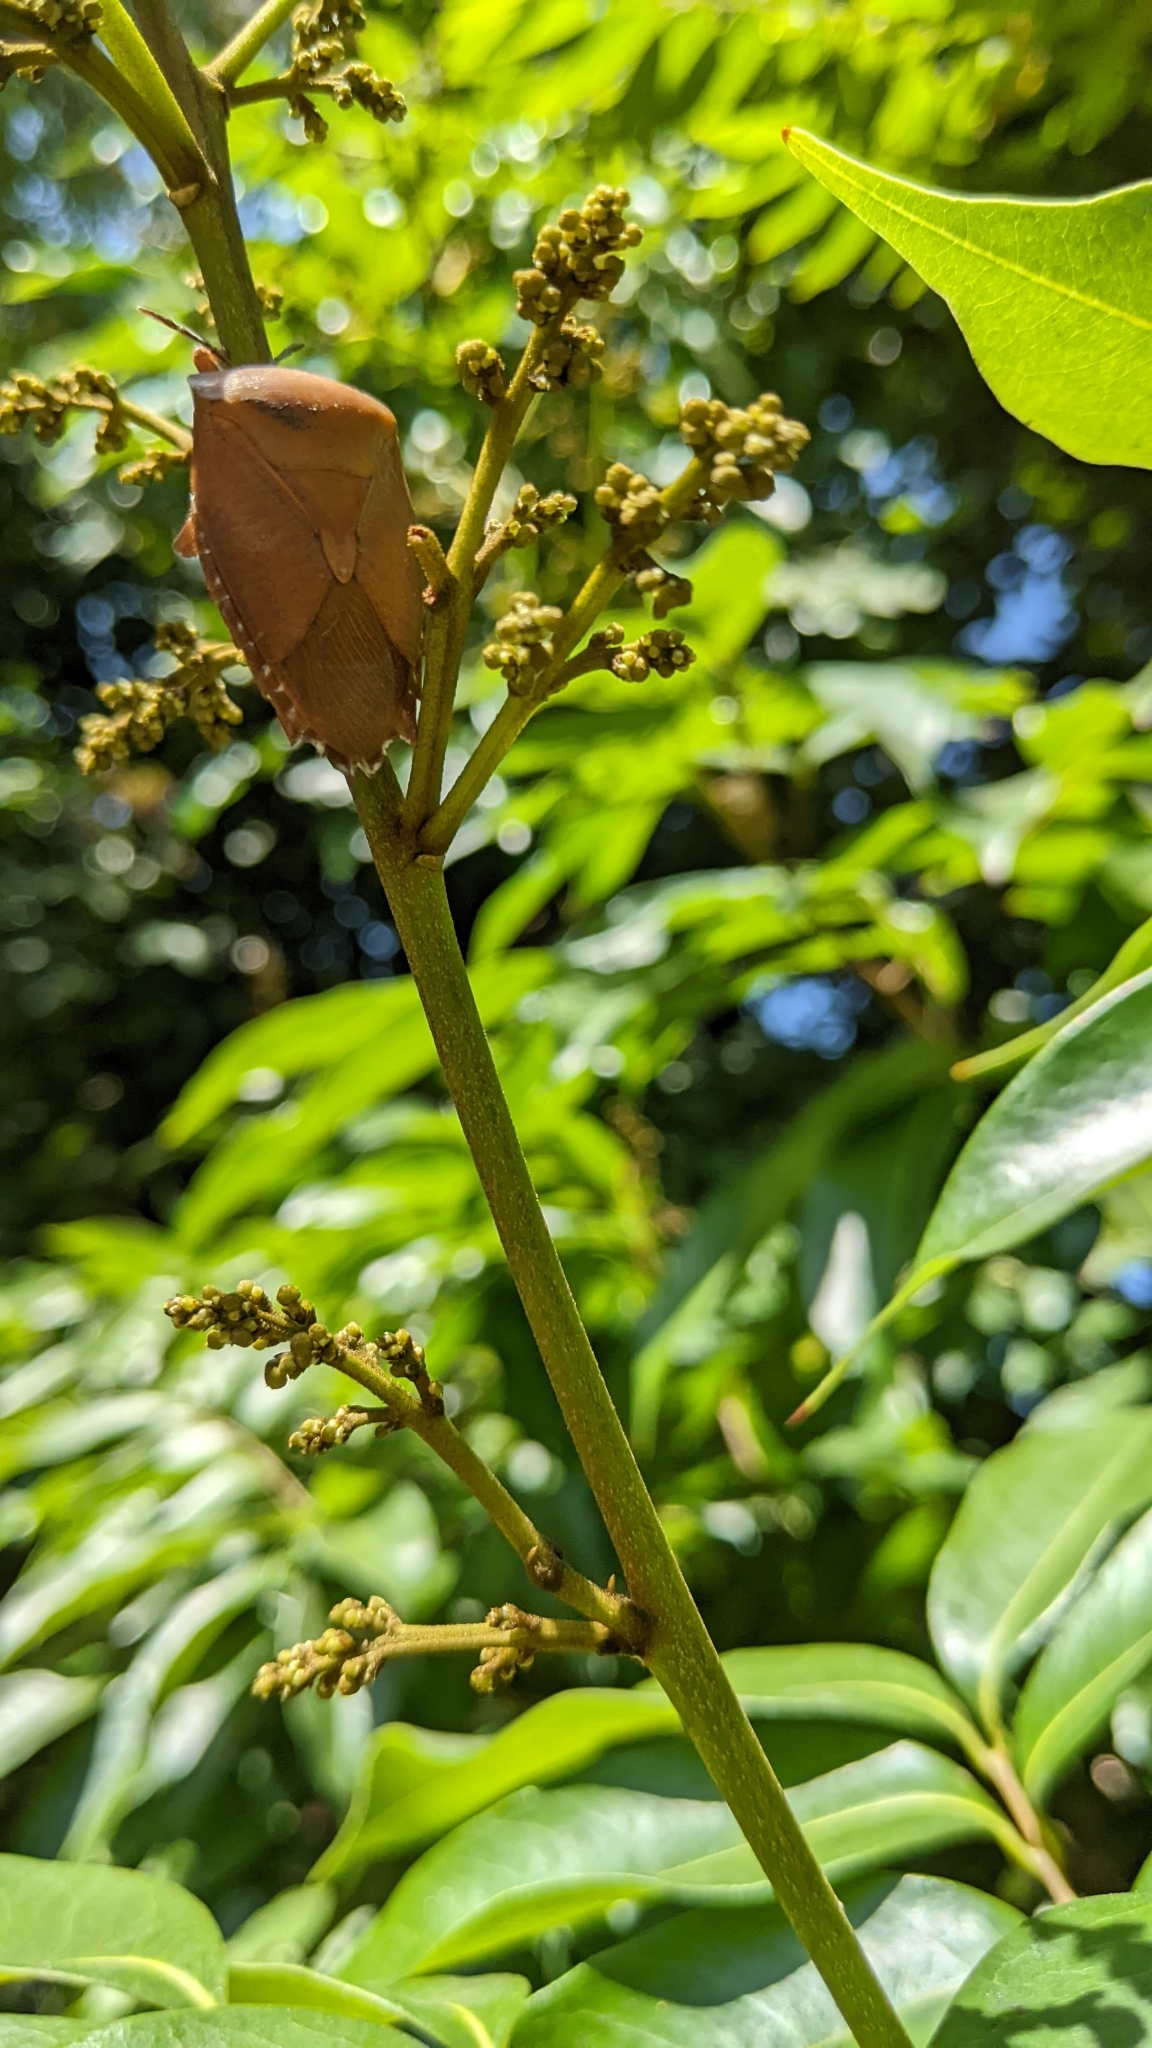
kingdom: Animalia
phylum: Arthropoda
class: Insecta
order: Hemiptera
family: Tessaratomidae
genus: Tessaratoma
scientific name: Tessaratoma papillosa
